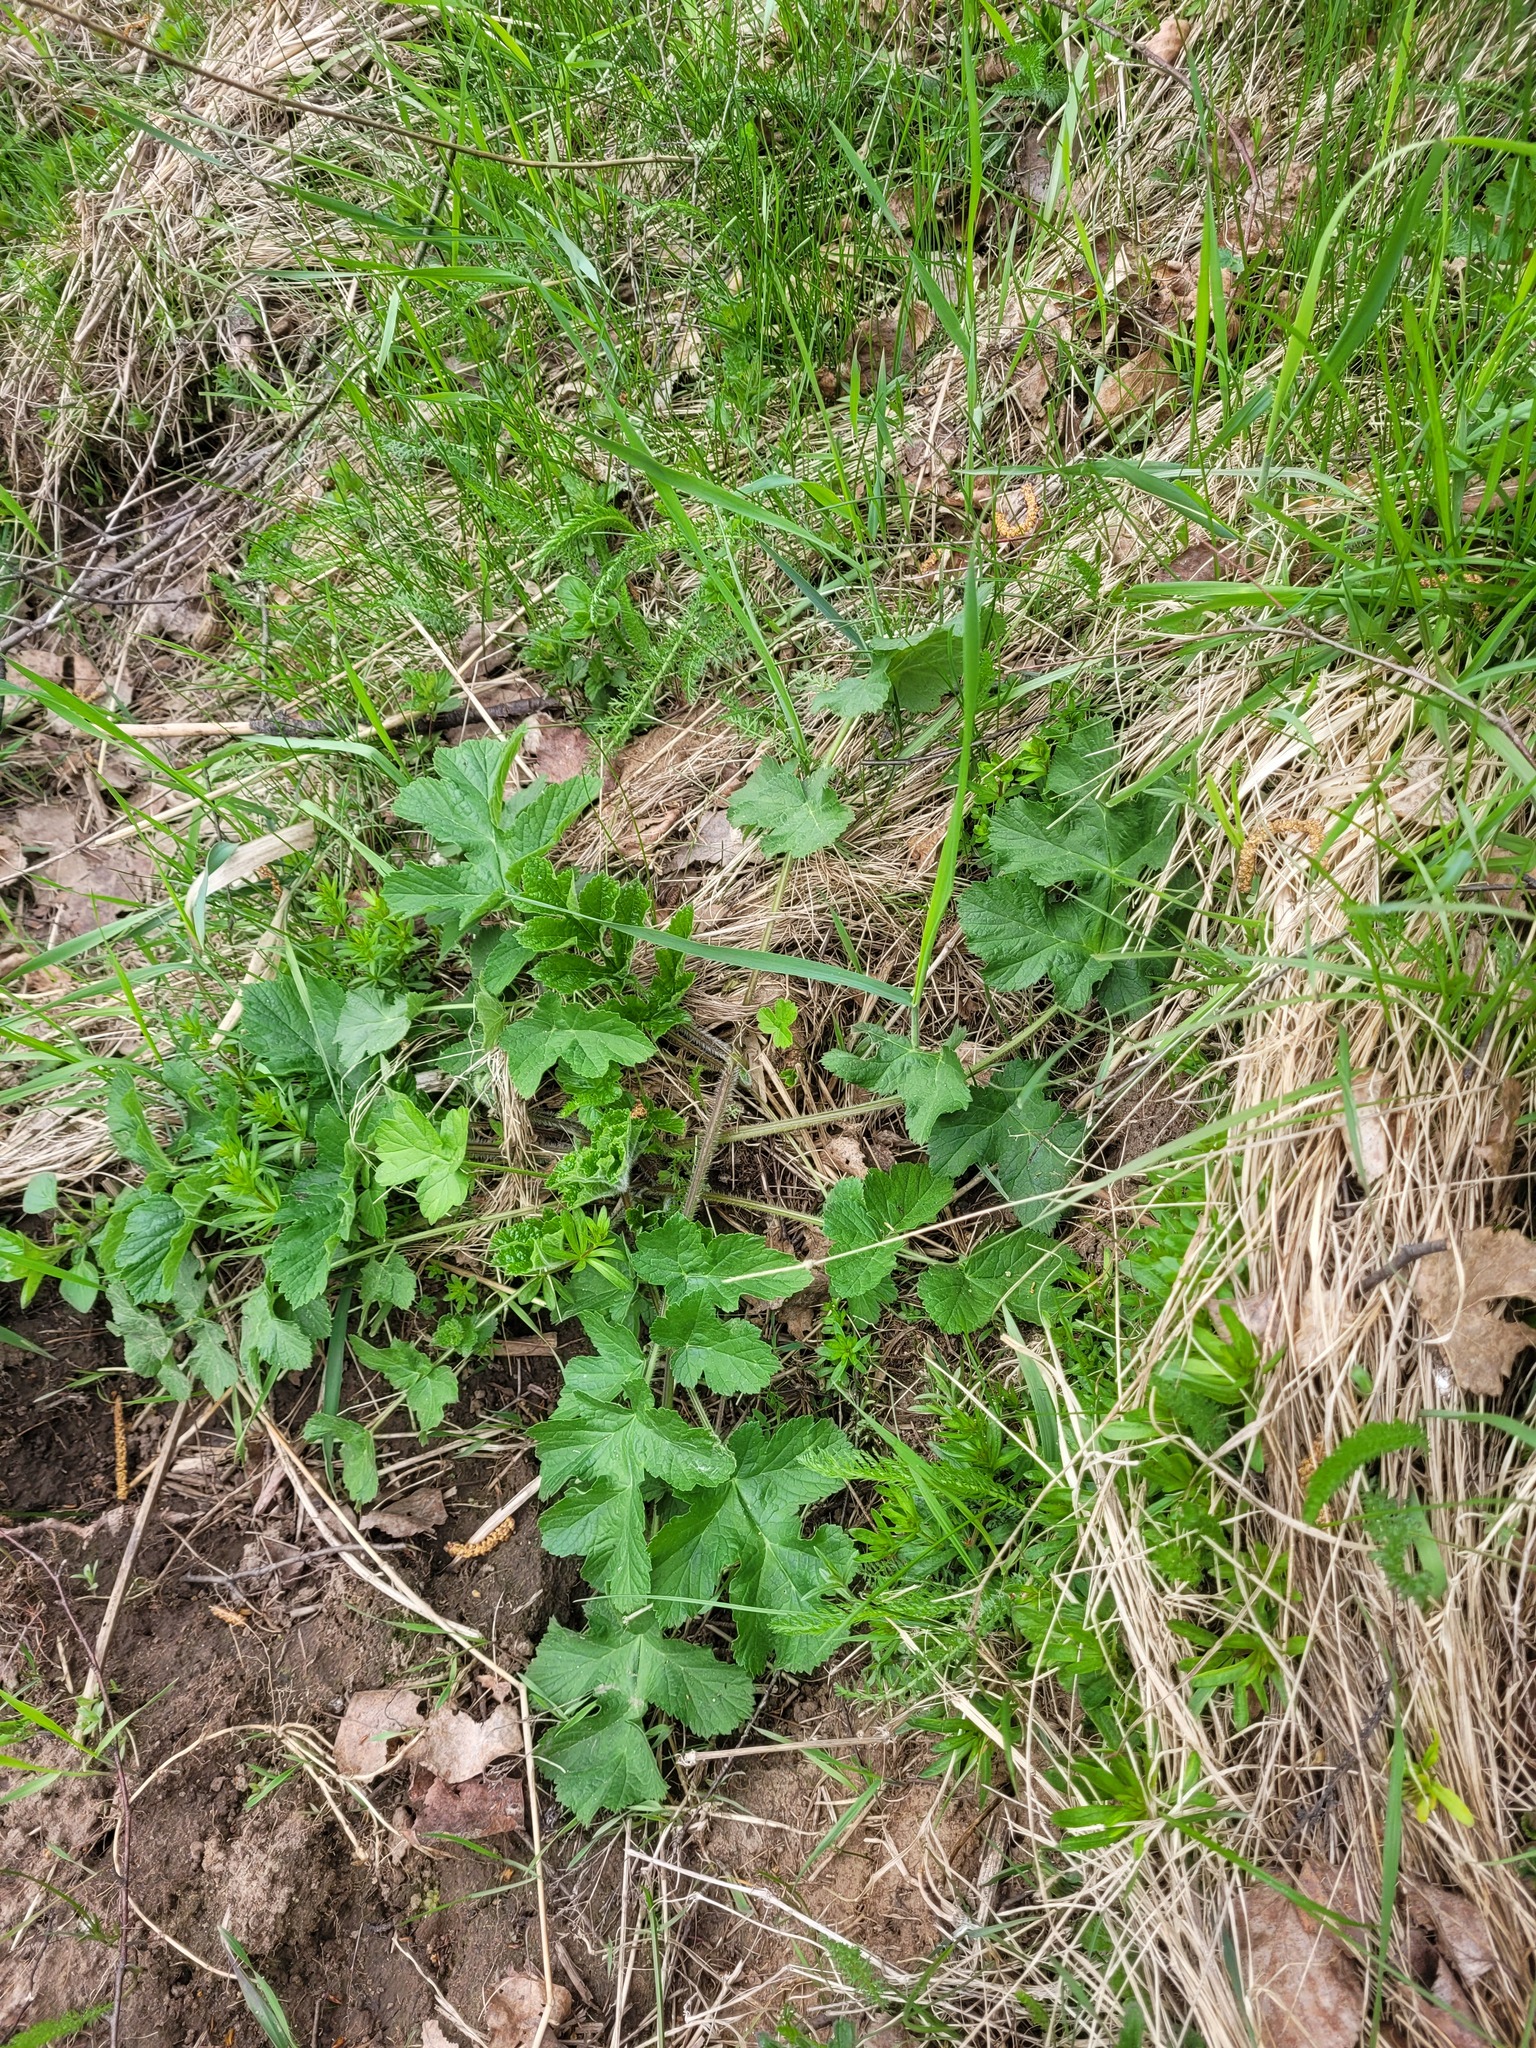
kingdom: Plantae
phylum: Tracheophyta
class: Magnoliopsida
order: Apiales
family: Apiaceae
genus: Heracleum
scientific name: Heracleum sphondylium
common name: Hogweed
